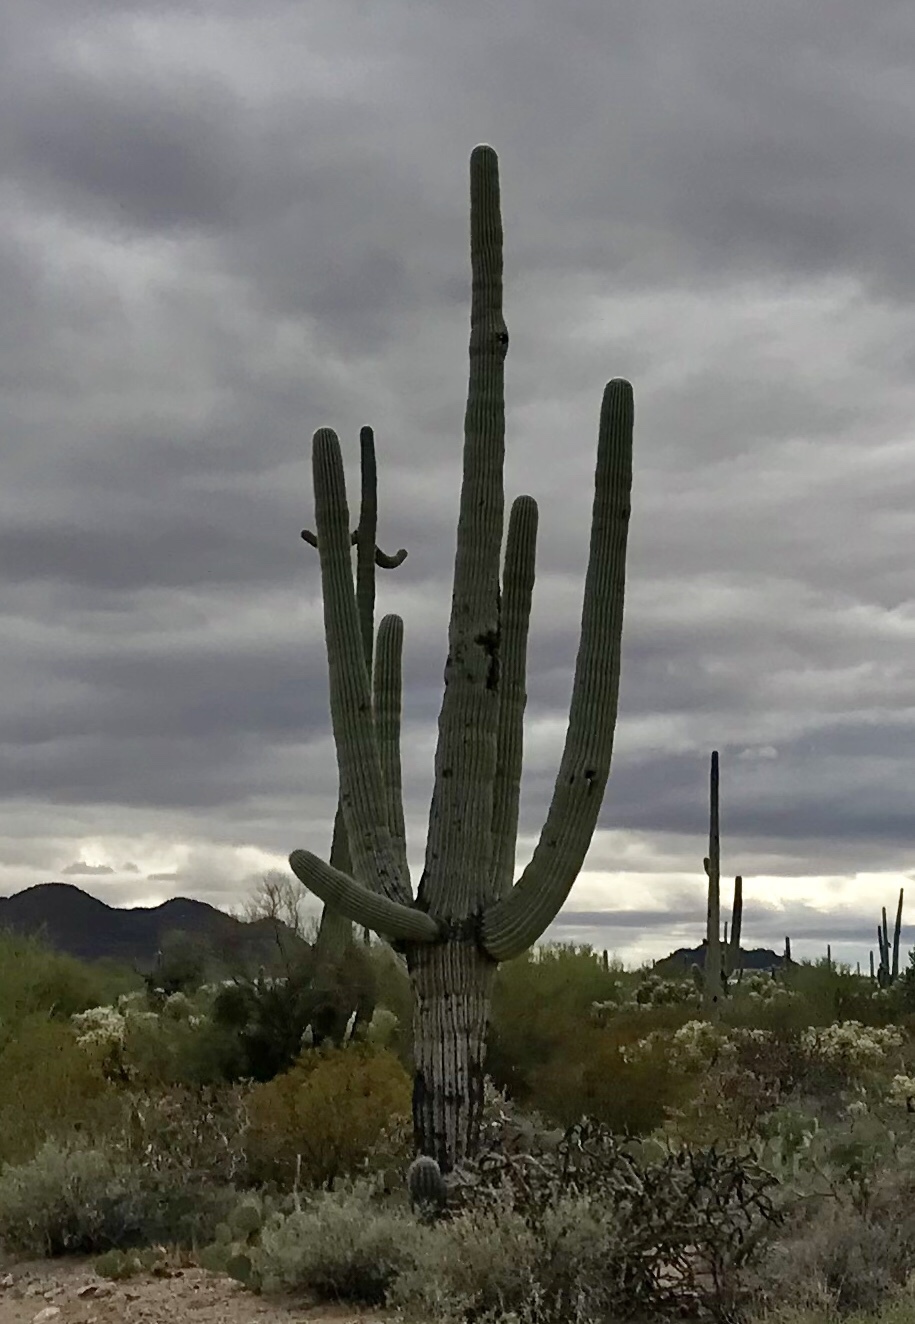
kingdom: Plantae
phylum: Tracheophyta
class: Magnoliopsida
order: Caryophyllales
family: Cactaceae
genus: Carnegiea
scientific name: Carnegiea gigantea
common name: Saguaro
